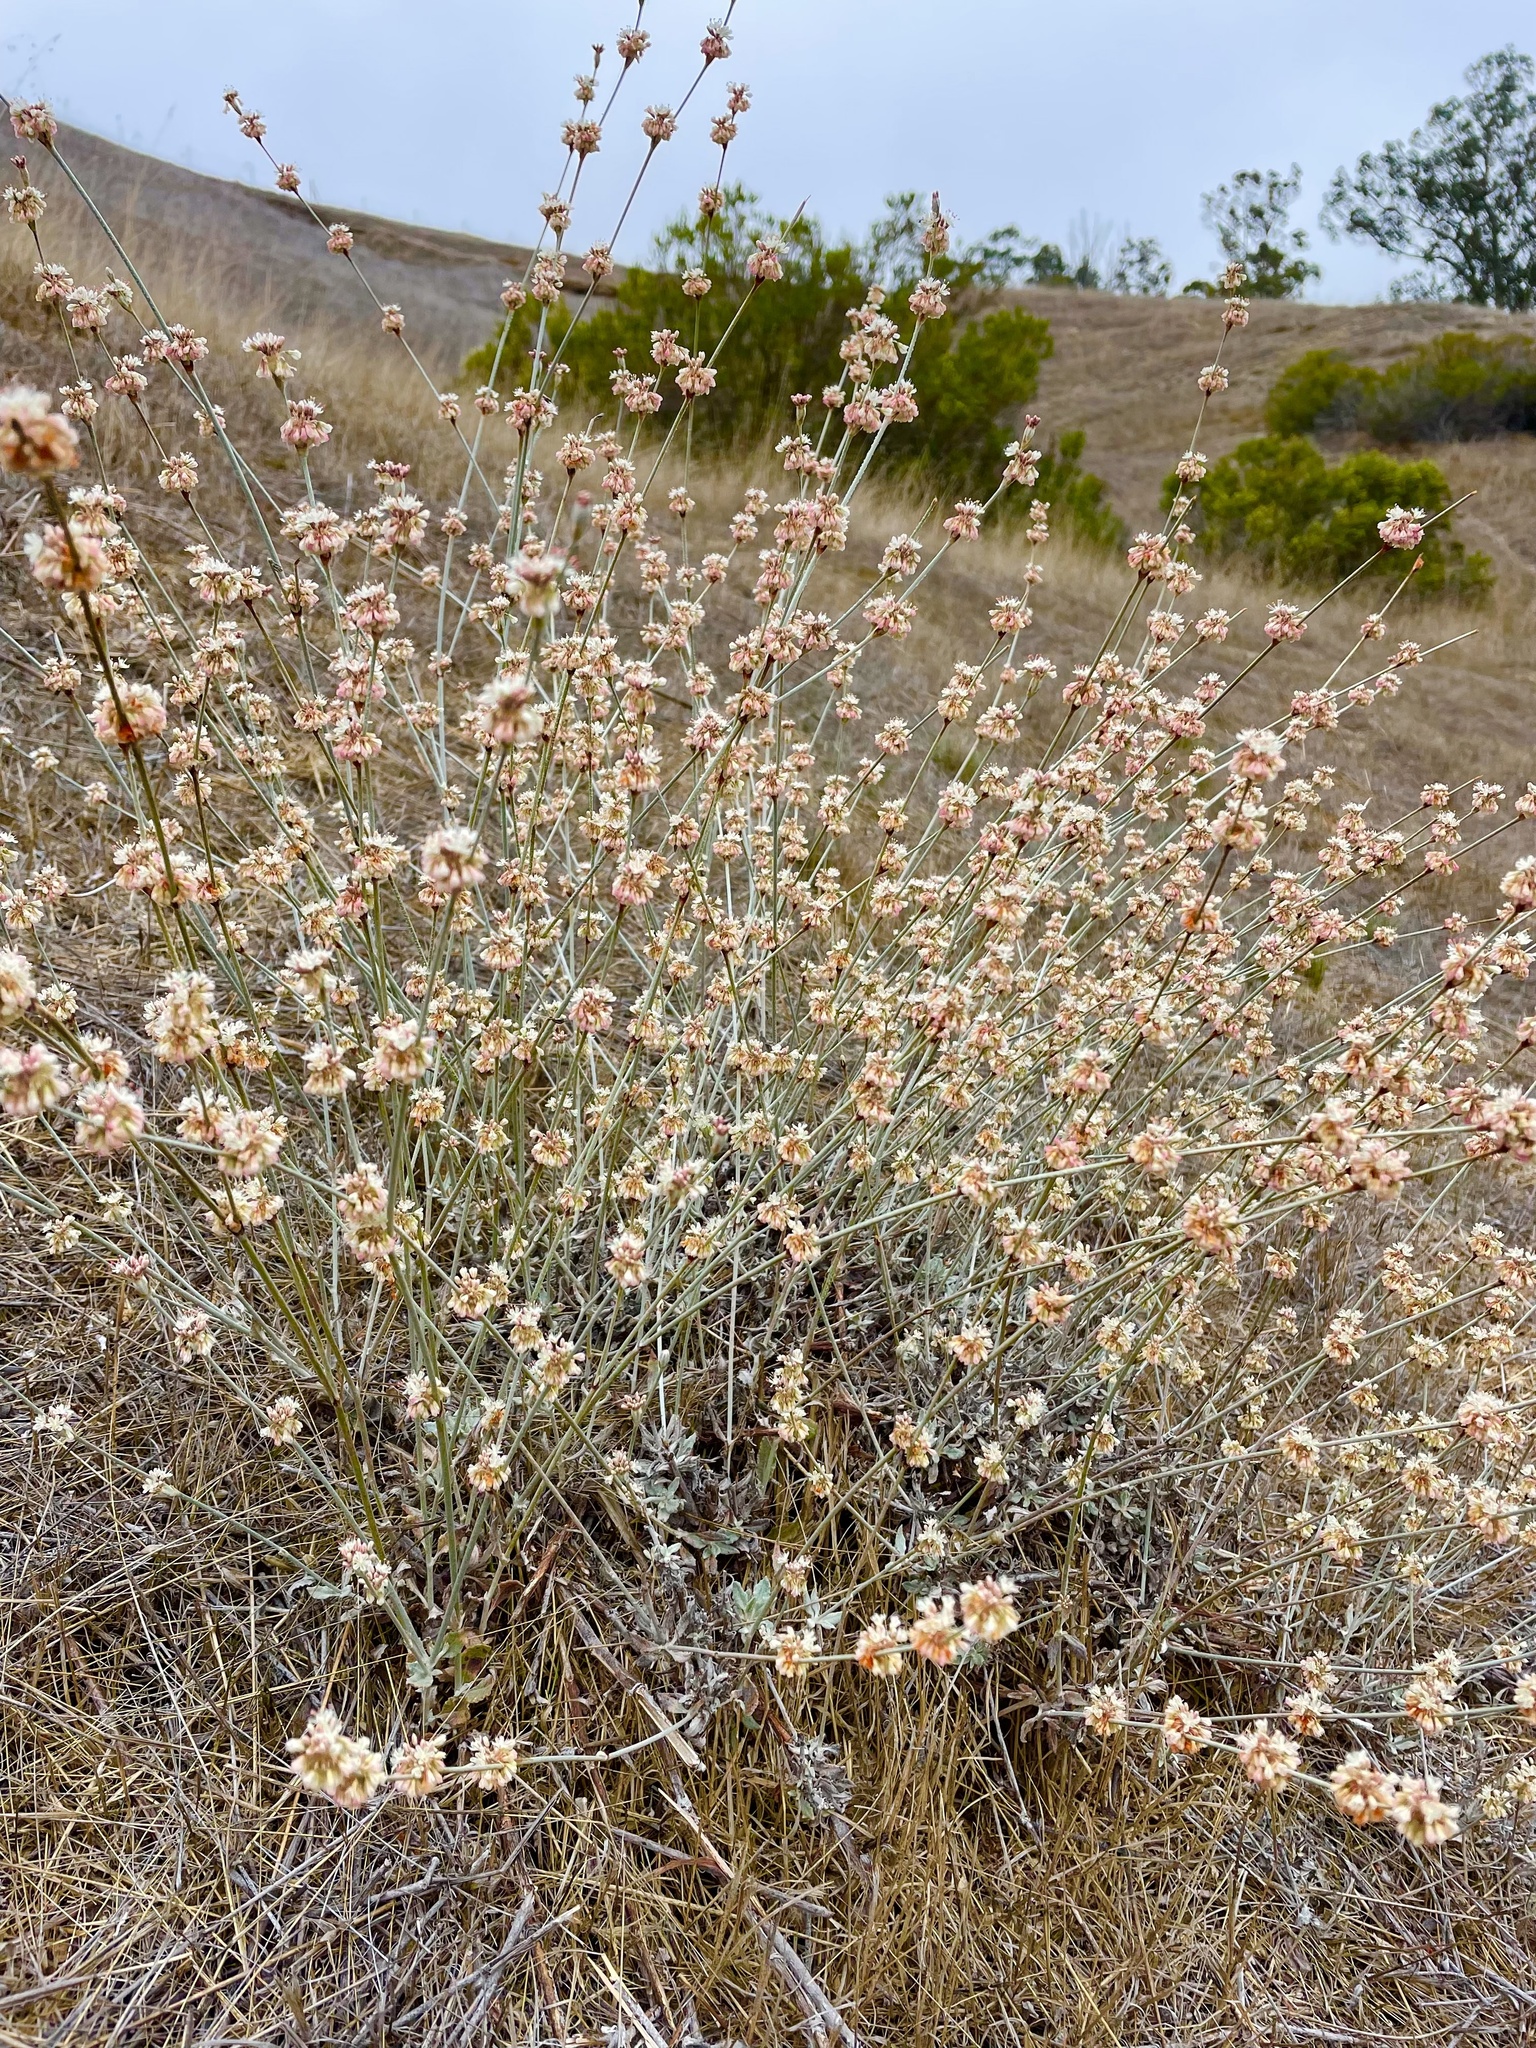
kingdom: Plantae
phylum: Tracheophyta
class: Magnoliopsida
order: Caryophyllales
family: Polygonaceae
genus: Eriogonum
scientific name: Eriogonum elongatum
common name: Long-stem wild buckwheat
